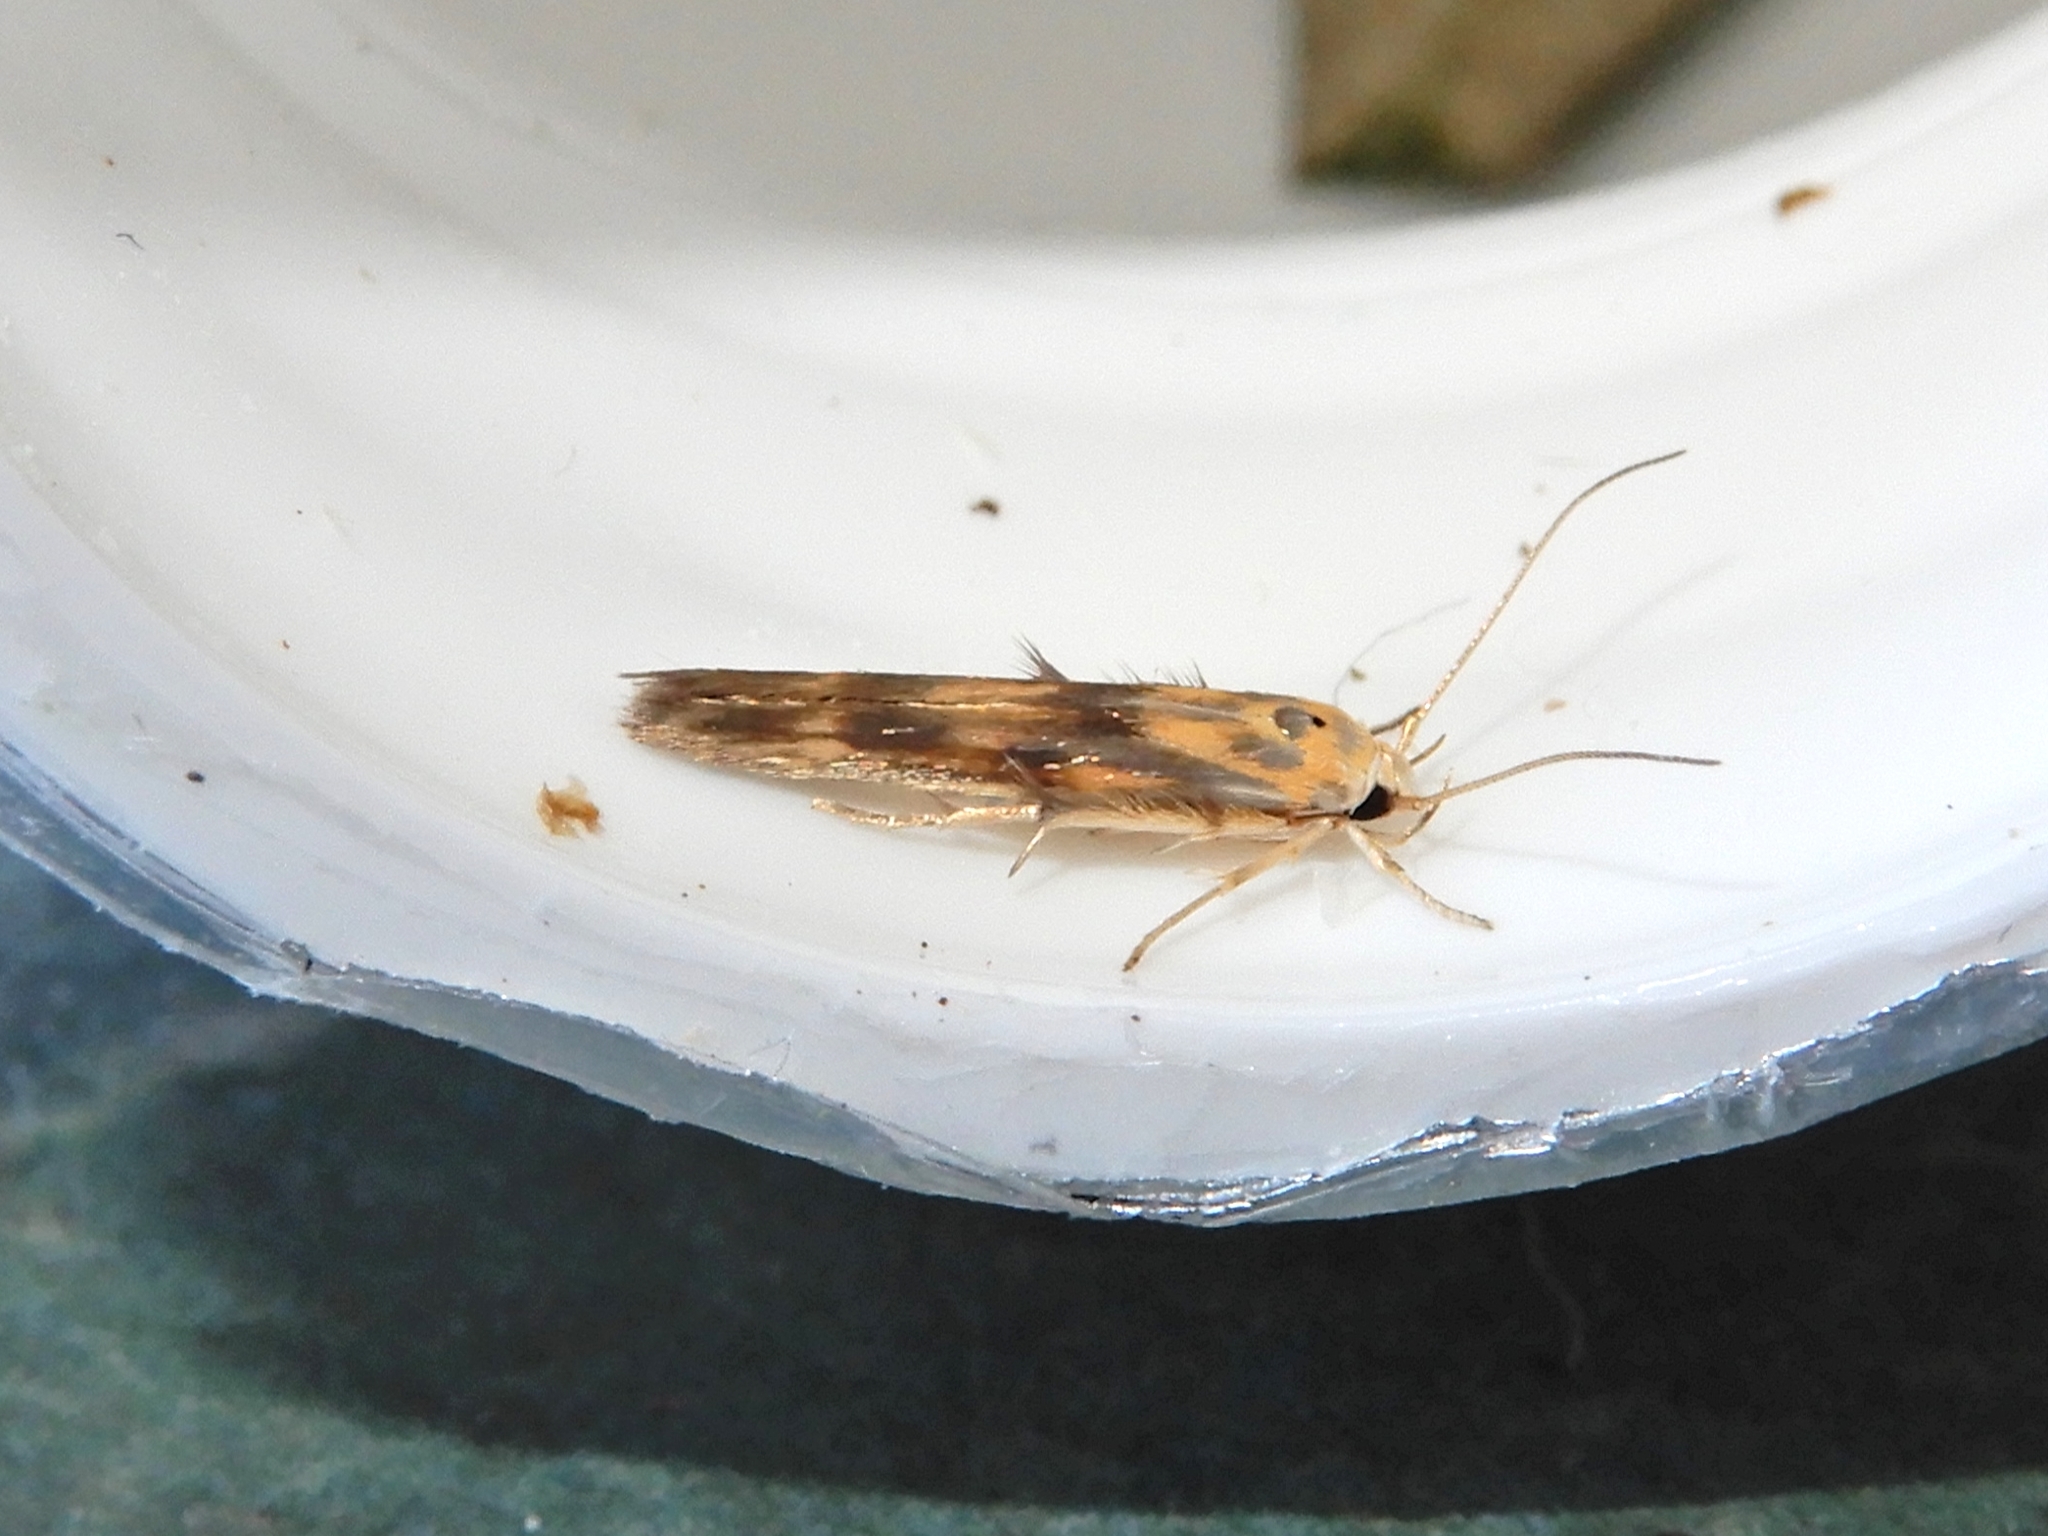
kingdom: Animalia
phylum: Arthropoda
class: Insecta
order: Lepidoptera
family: Stathmopodidae
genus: Stathmopoda
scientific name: Stathmopoda plumbiflua
